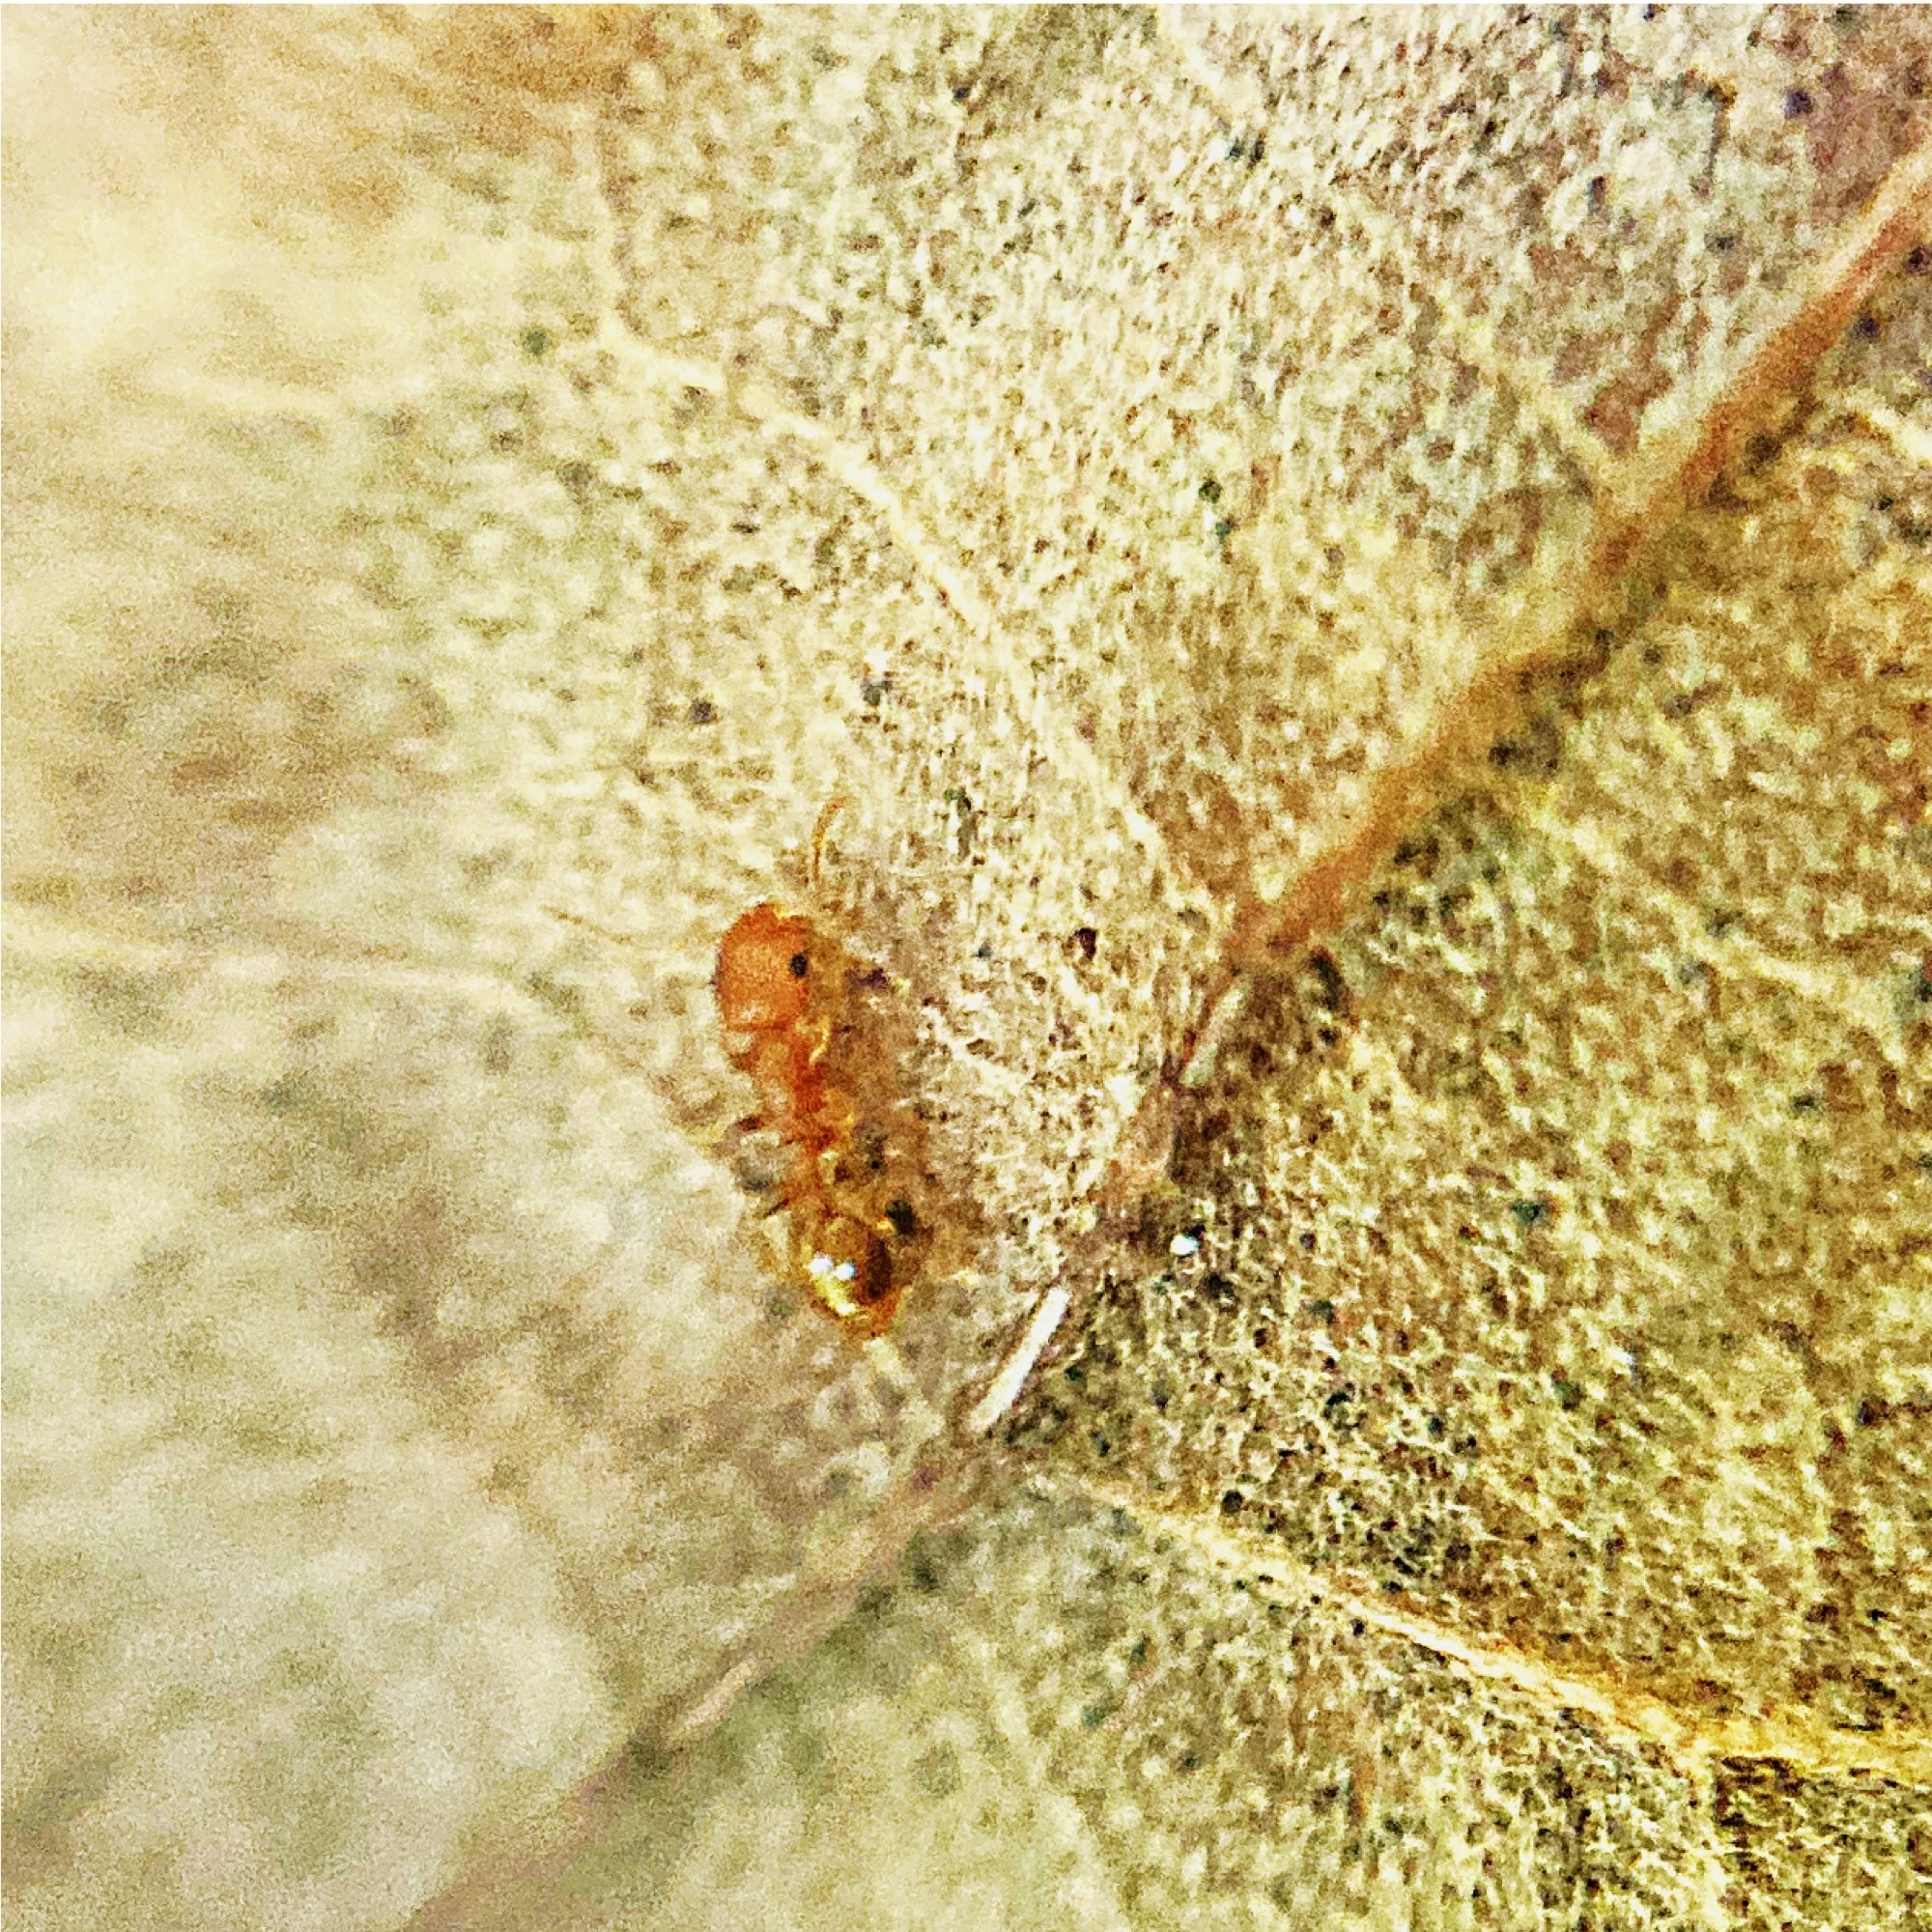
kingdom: Animalia
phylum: Arthropoda
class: Insecta
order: Hymenoptera
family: Formicidae
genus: Temnothorax
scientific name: Temnothorax curvispinosus
